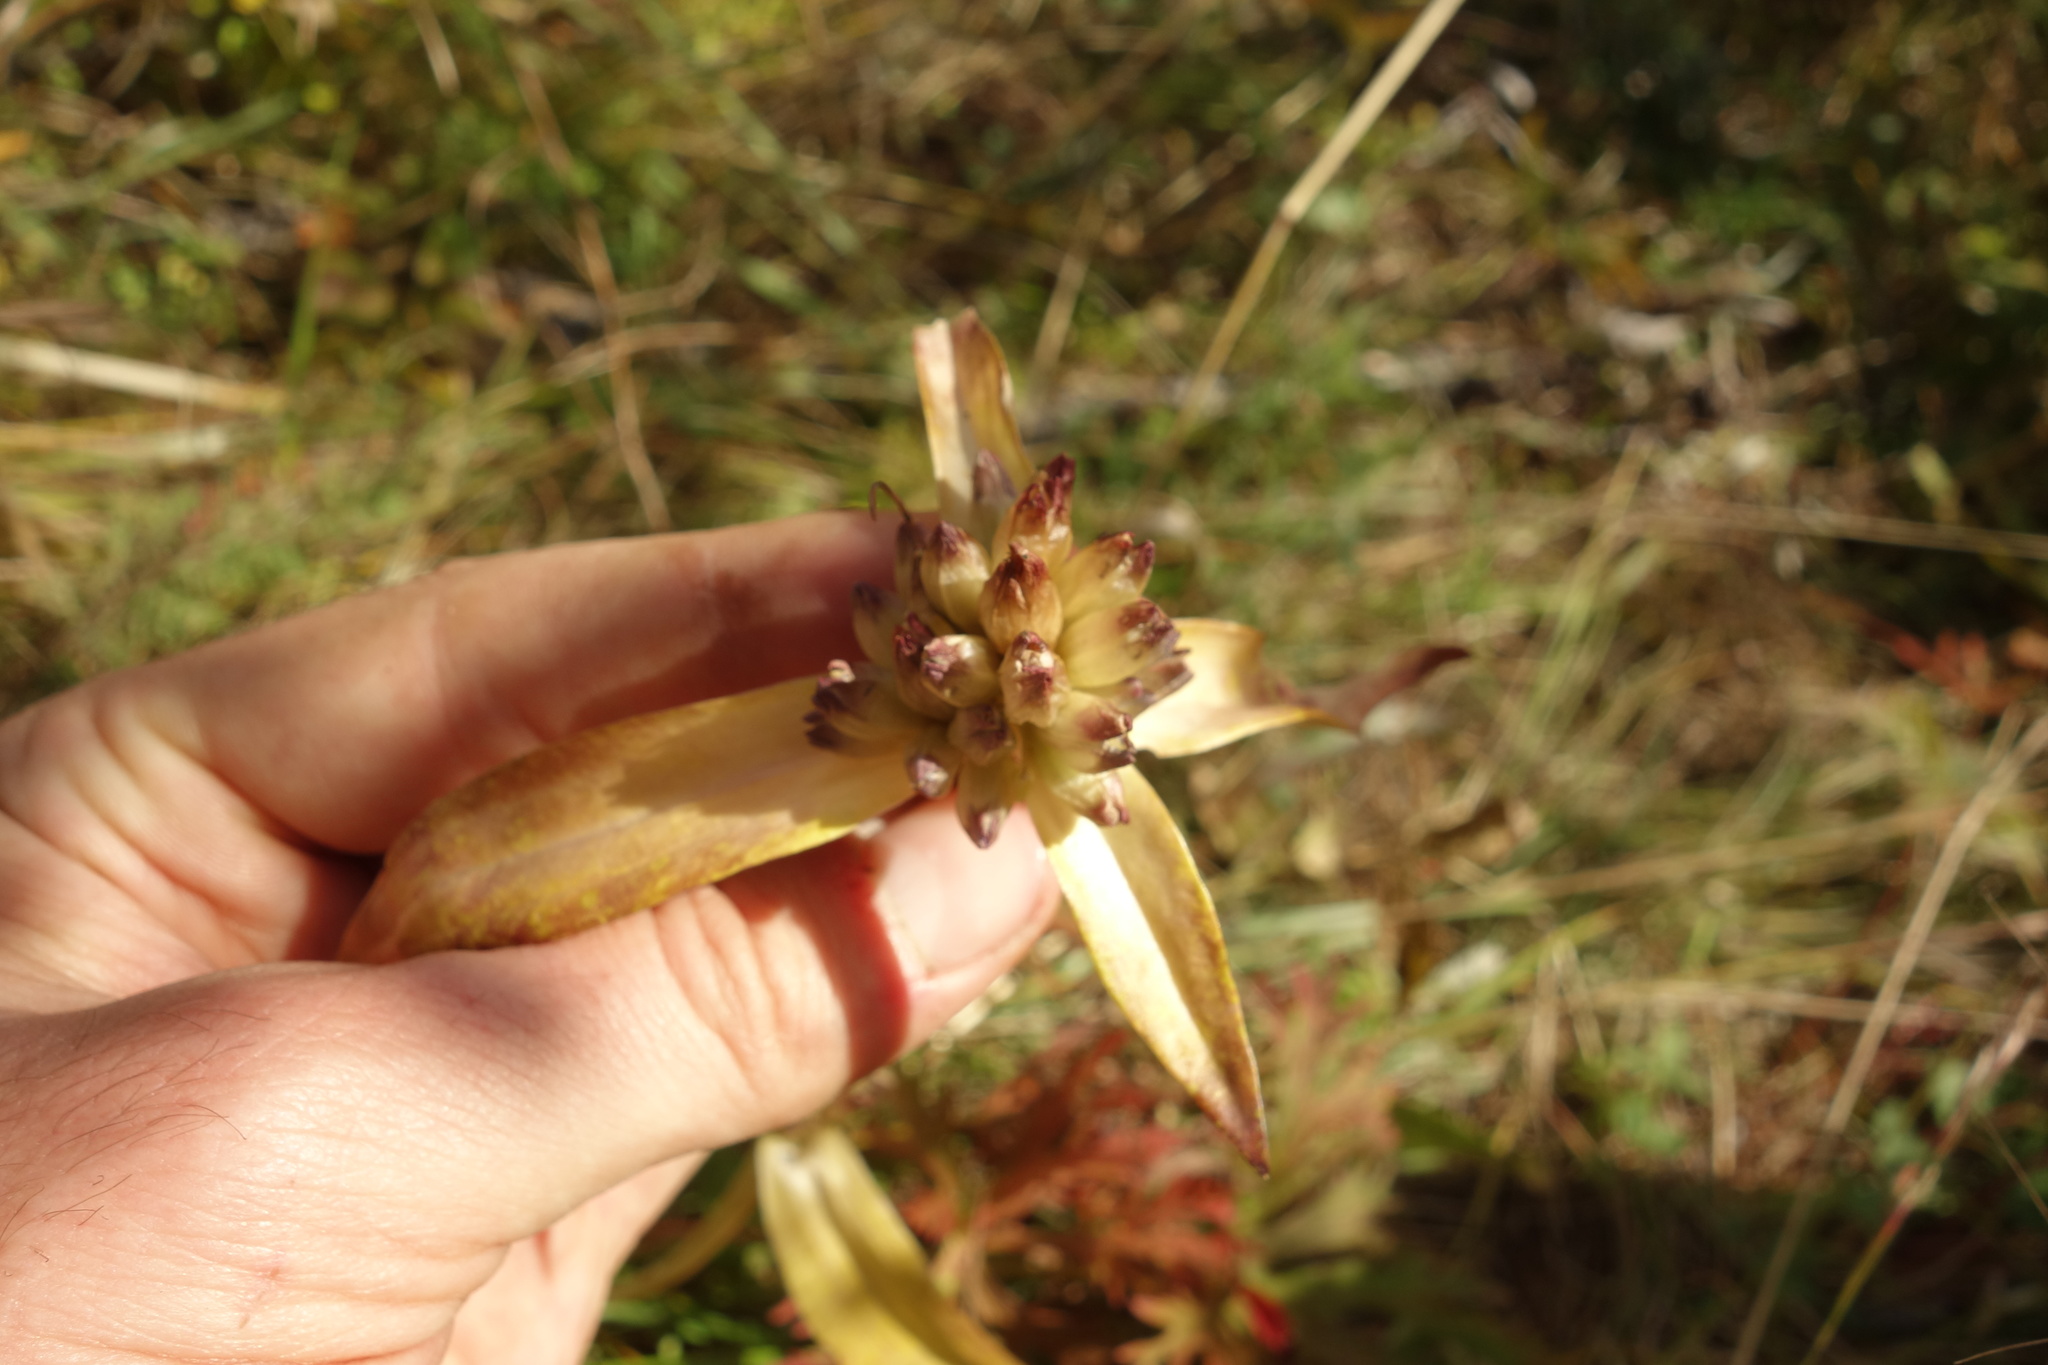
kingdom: Plantae
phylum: Tracheophyta
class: Magnoliopsida
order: Gentianales
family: Gentianaceae
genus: Gentiana
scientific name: Gentiana macrophylla
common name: Large-leaf gentian
